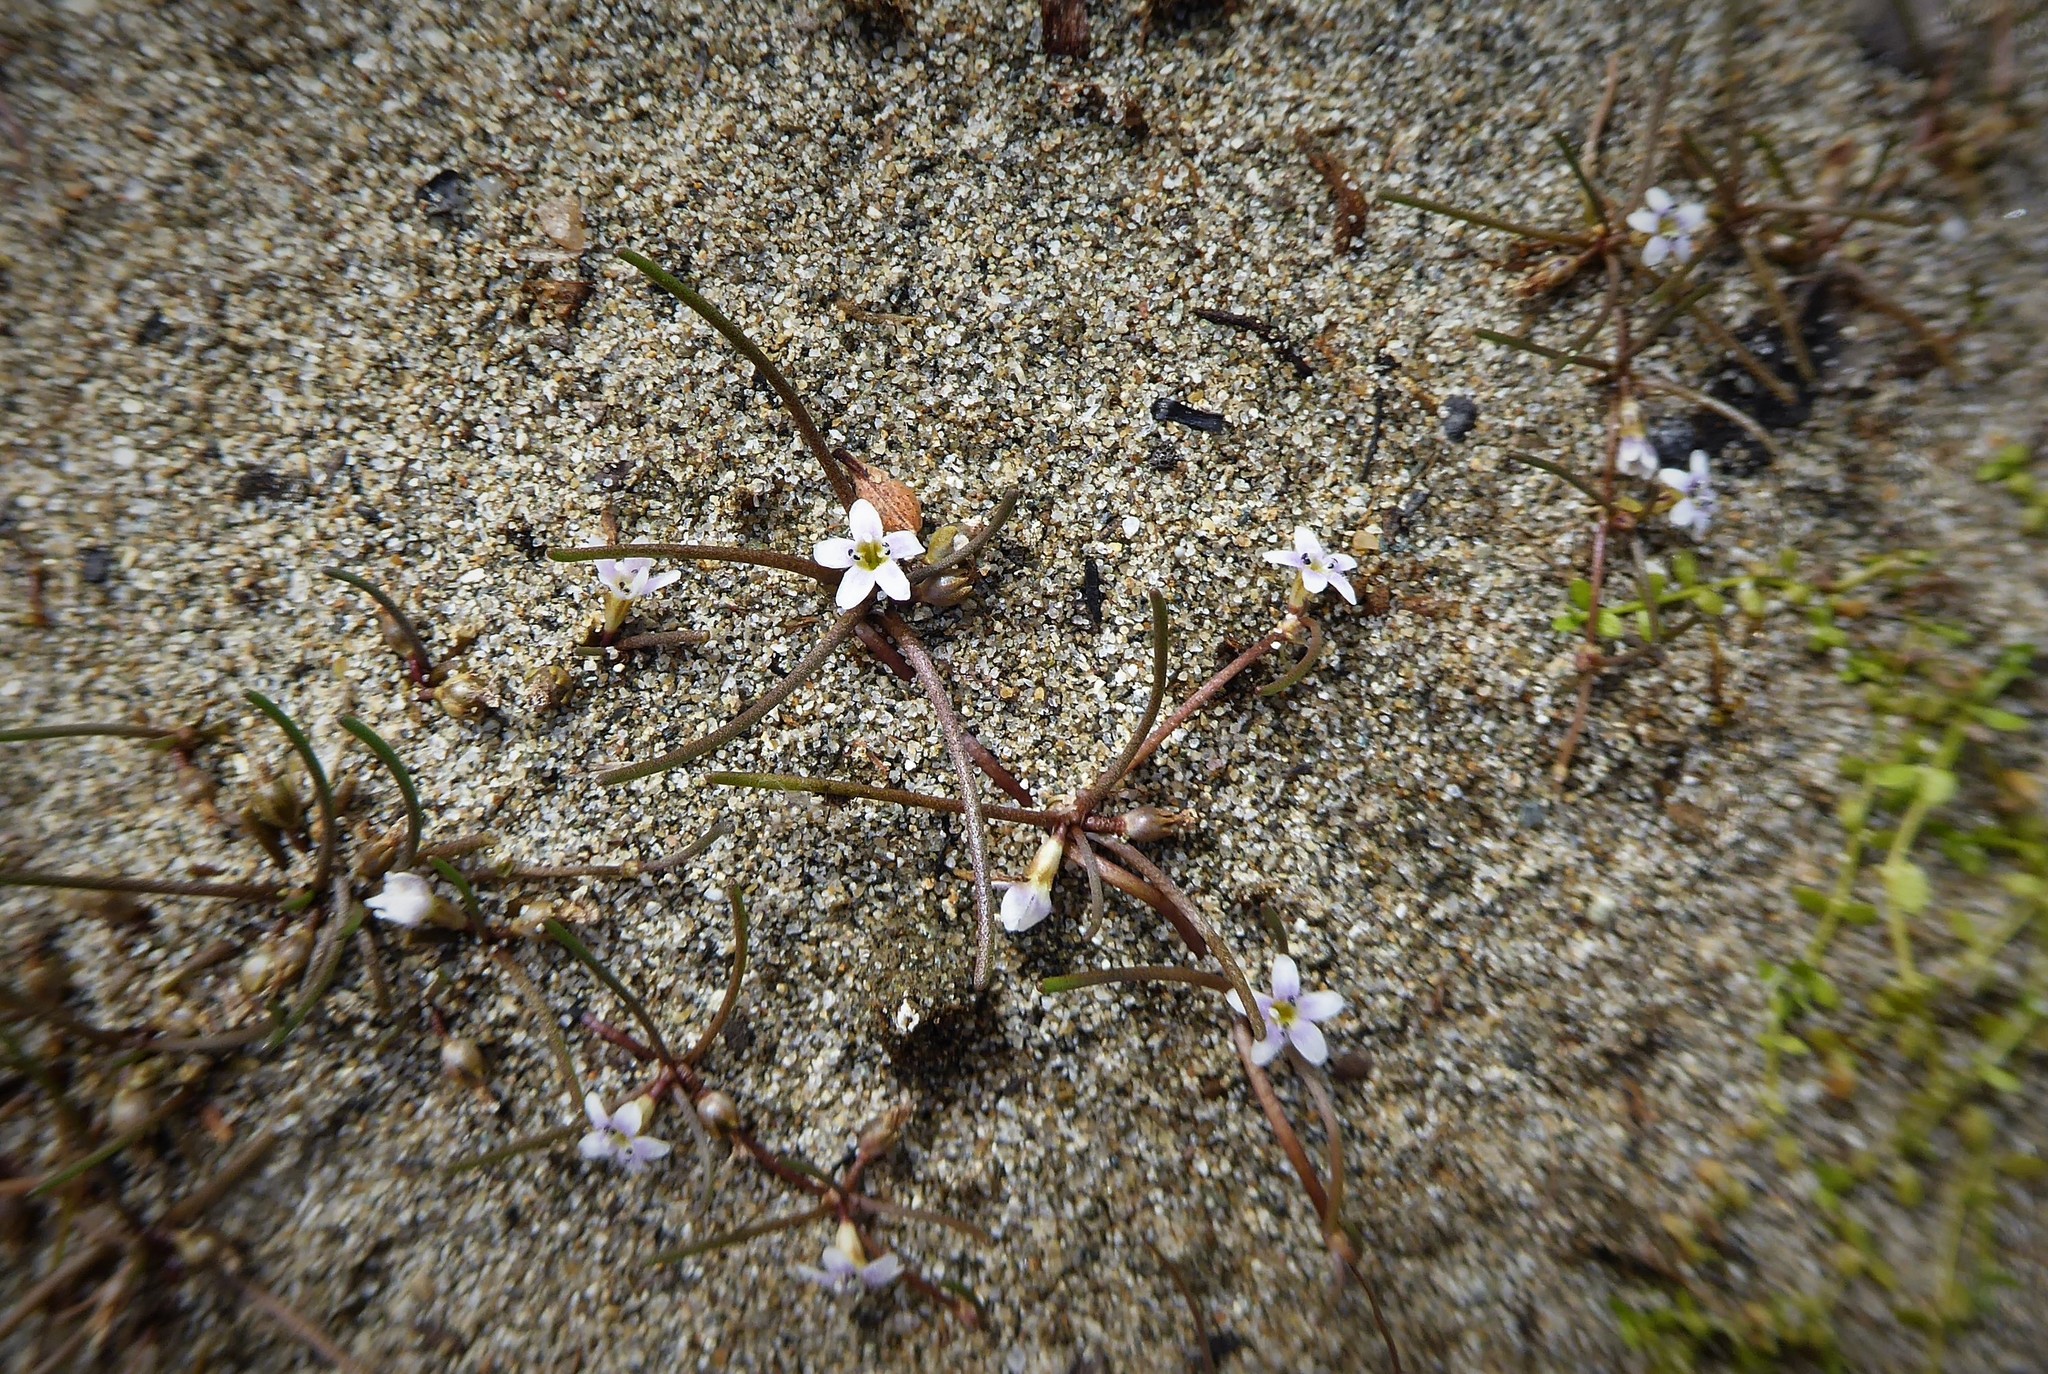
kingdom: Plantae
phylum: Tracheophyta
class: Magnoliopsida
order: Lamiales
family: Scrophulariaceae
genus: Limosella
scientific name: Limosella australis
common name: Welsh mudwort
